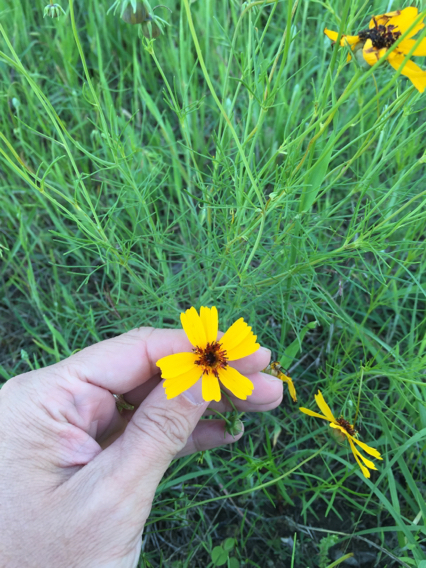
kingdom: Plantae
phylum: Tracheophyta
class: Magnoliopsida
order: Asterales
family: Asteraceae
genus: Thelesperma
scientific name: Thelesperma filifolium
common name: Stiff greenthread
